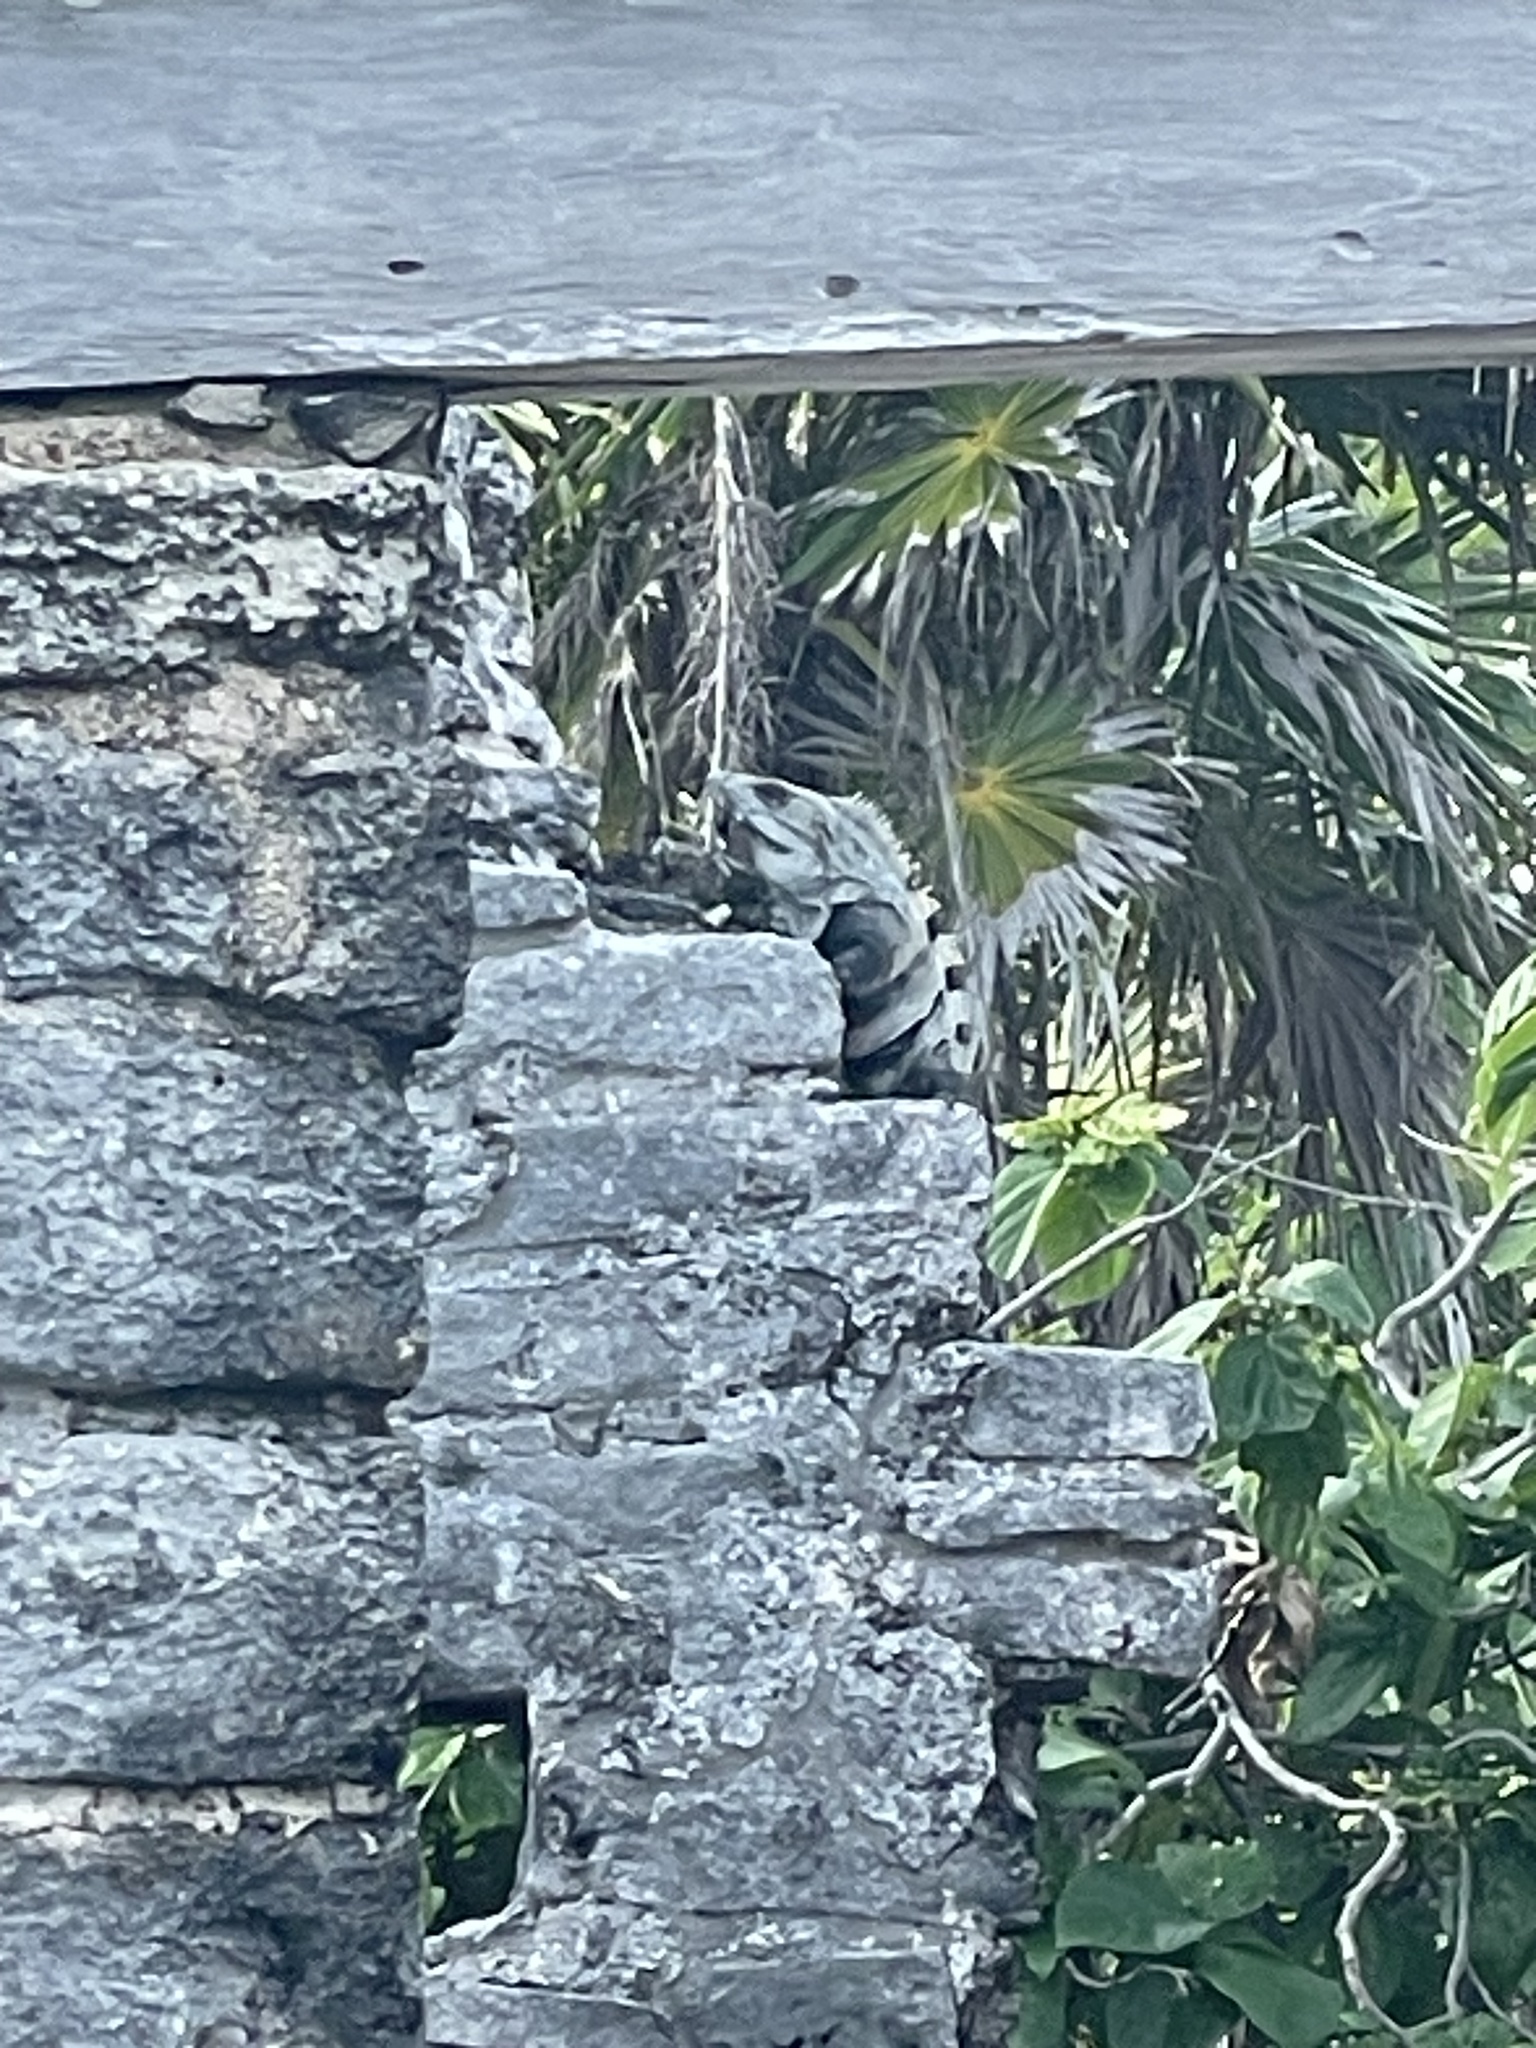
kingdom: Animalia
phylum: Chordata
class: Squamata
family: Iguanidae
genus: Ctenosaura
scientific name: Ctenosaura similis
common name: Black spiny-tailed iguana
